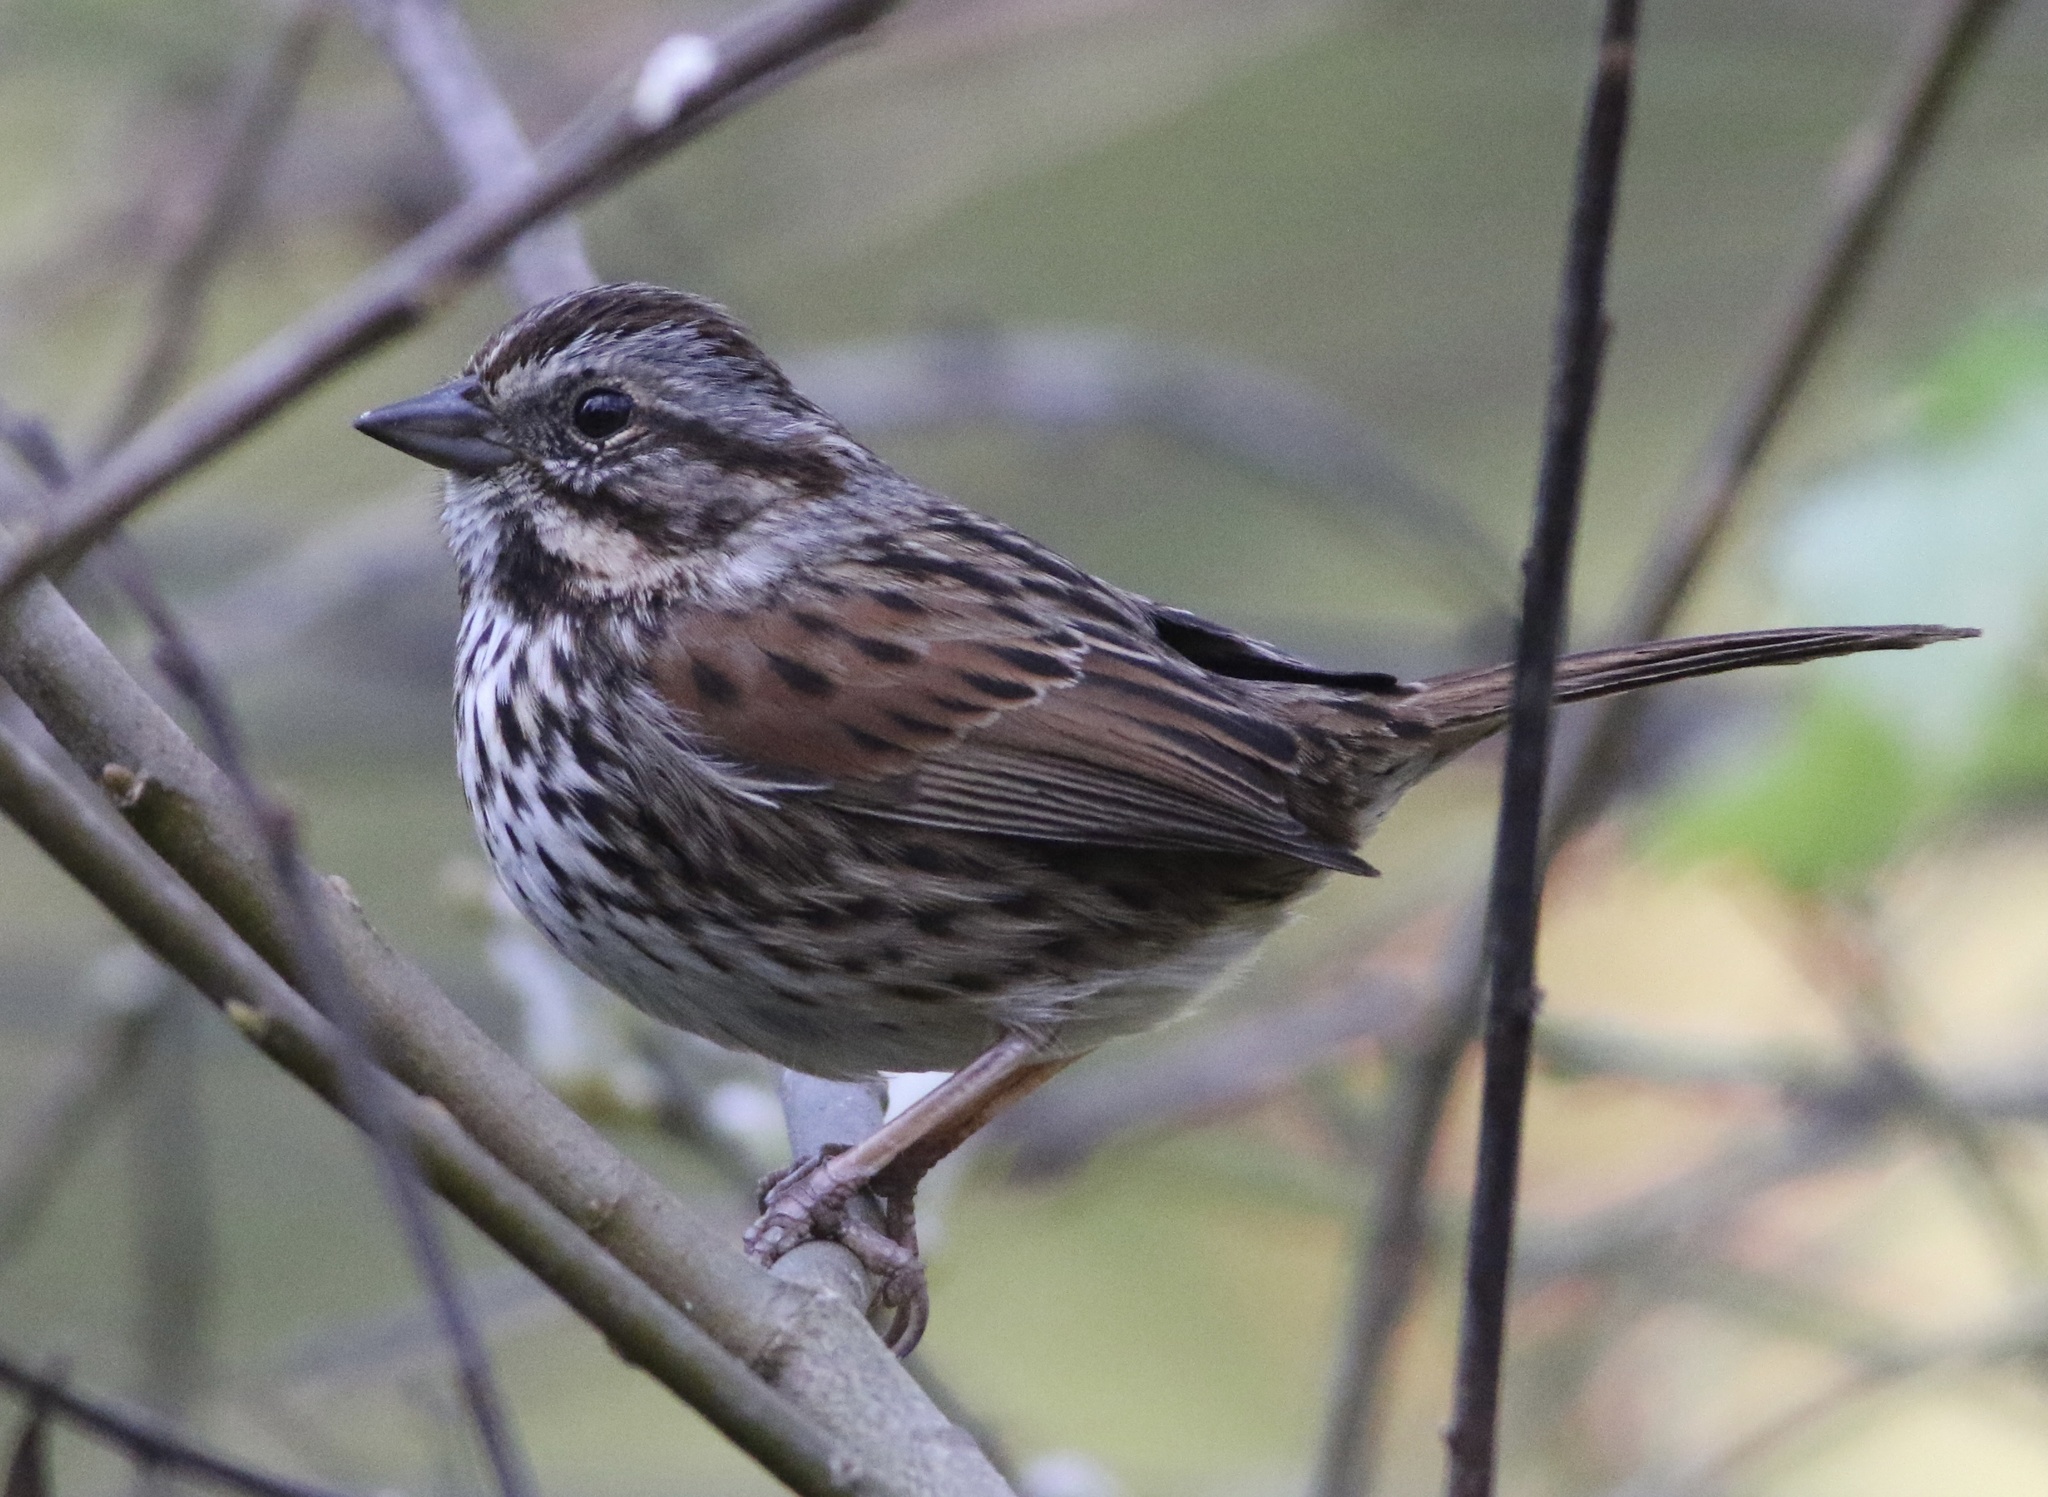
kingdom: Animalia
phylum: Chordata
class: Aves
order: Passeriformes
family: Passerellidae
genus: Melospiza
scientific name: Melospiza melodia
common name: Song sparrow
